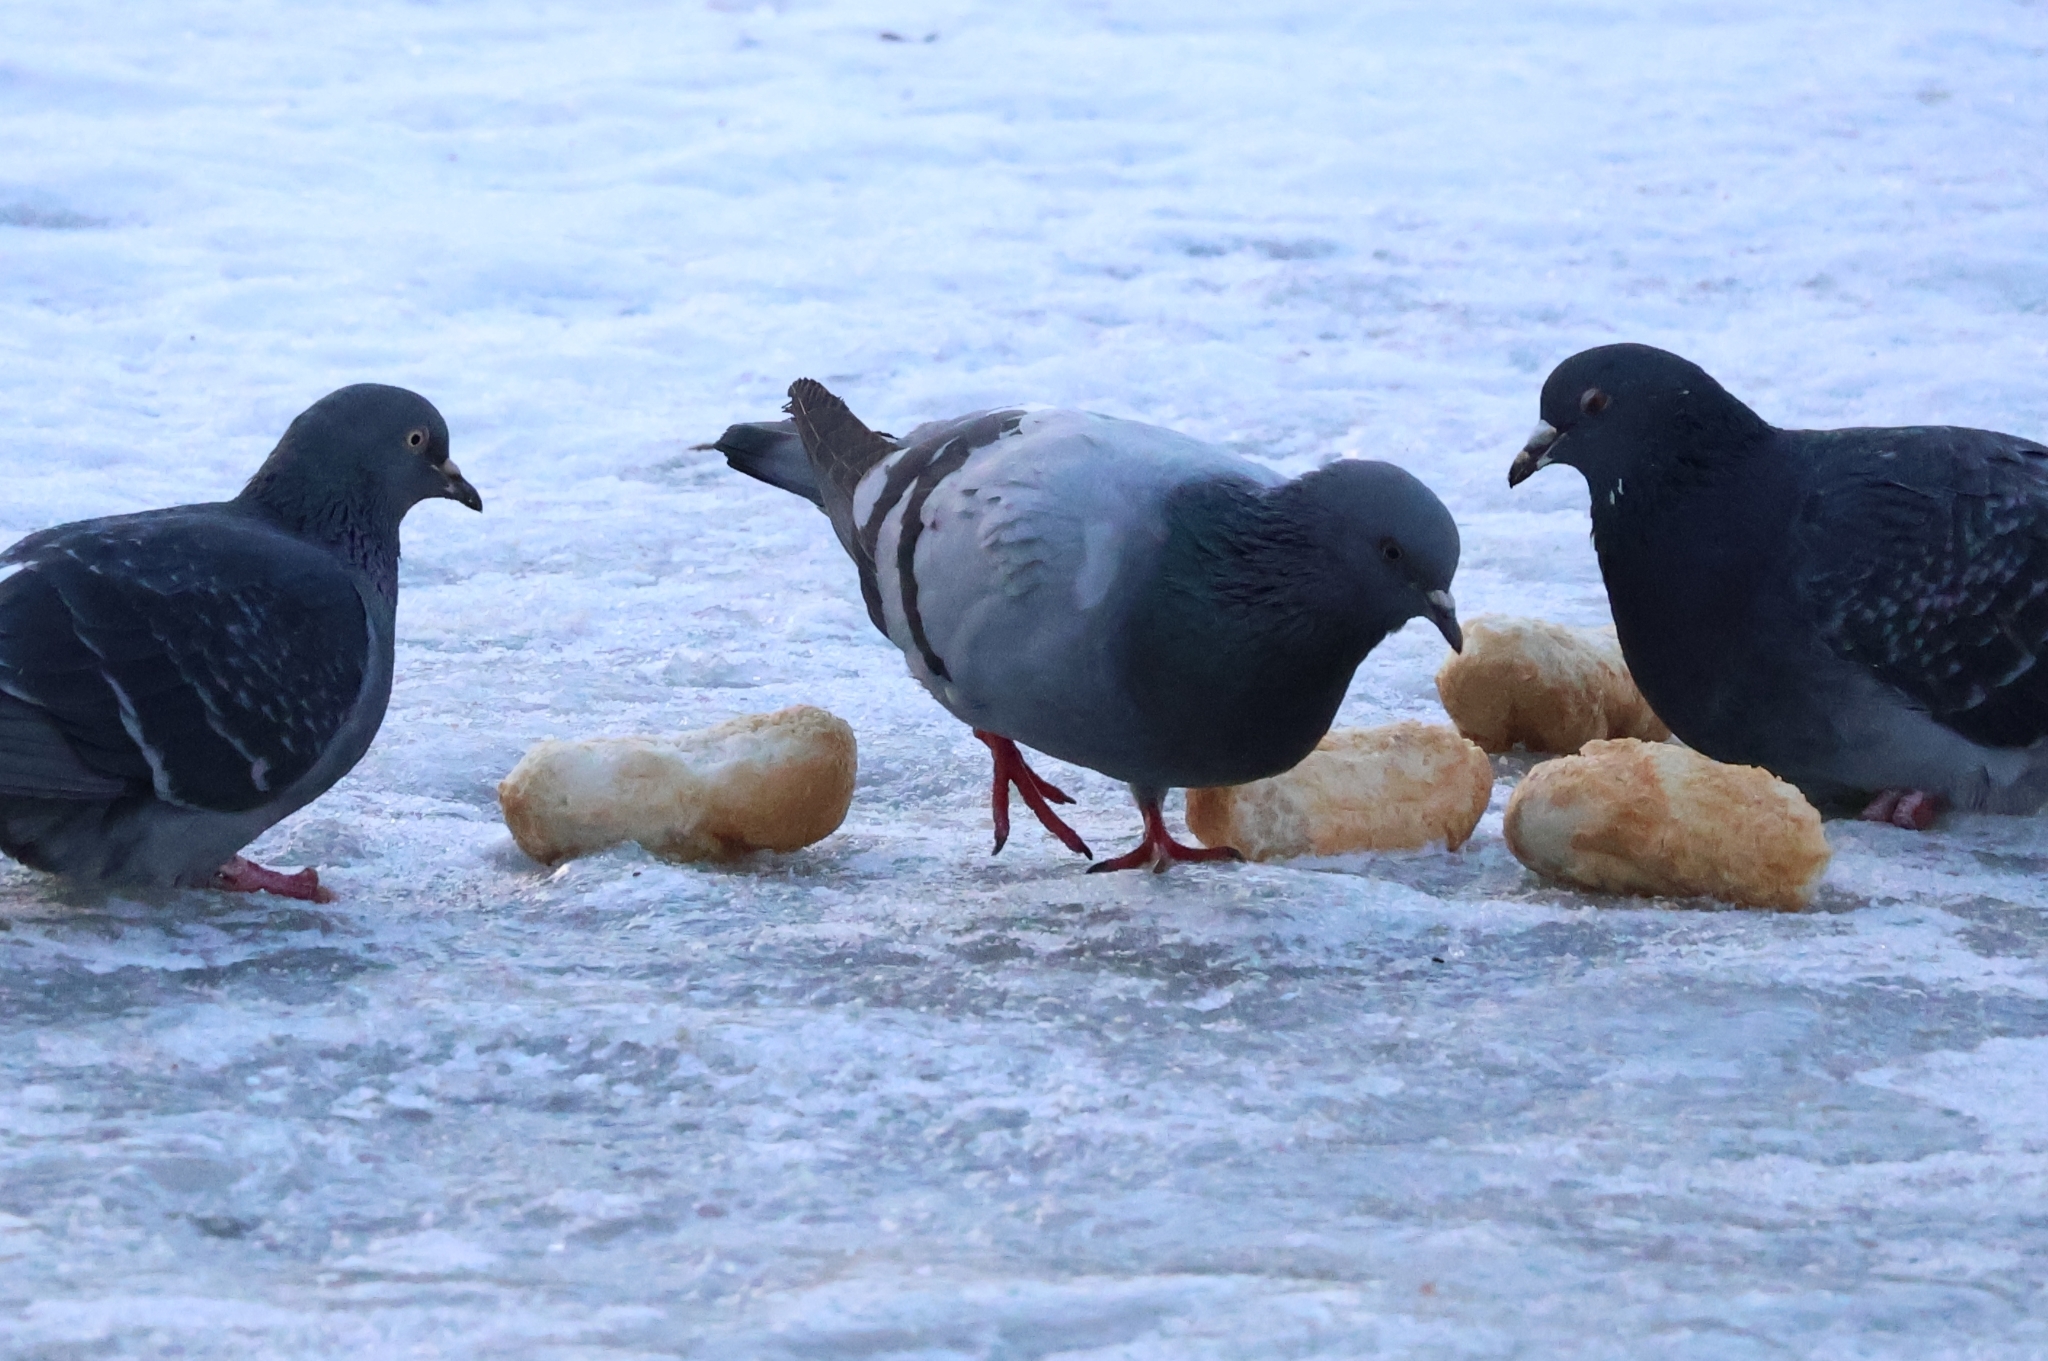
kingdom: Animalia
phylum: Chordata
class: Aves
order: Columbiformes
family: Columbidae
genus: Columba
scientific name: Columba livia
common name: Rock pigeon
